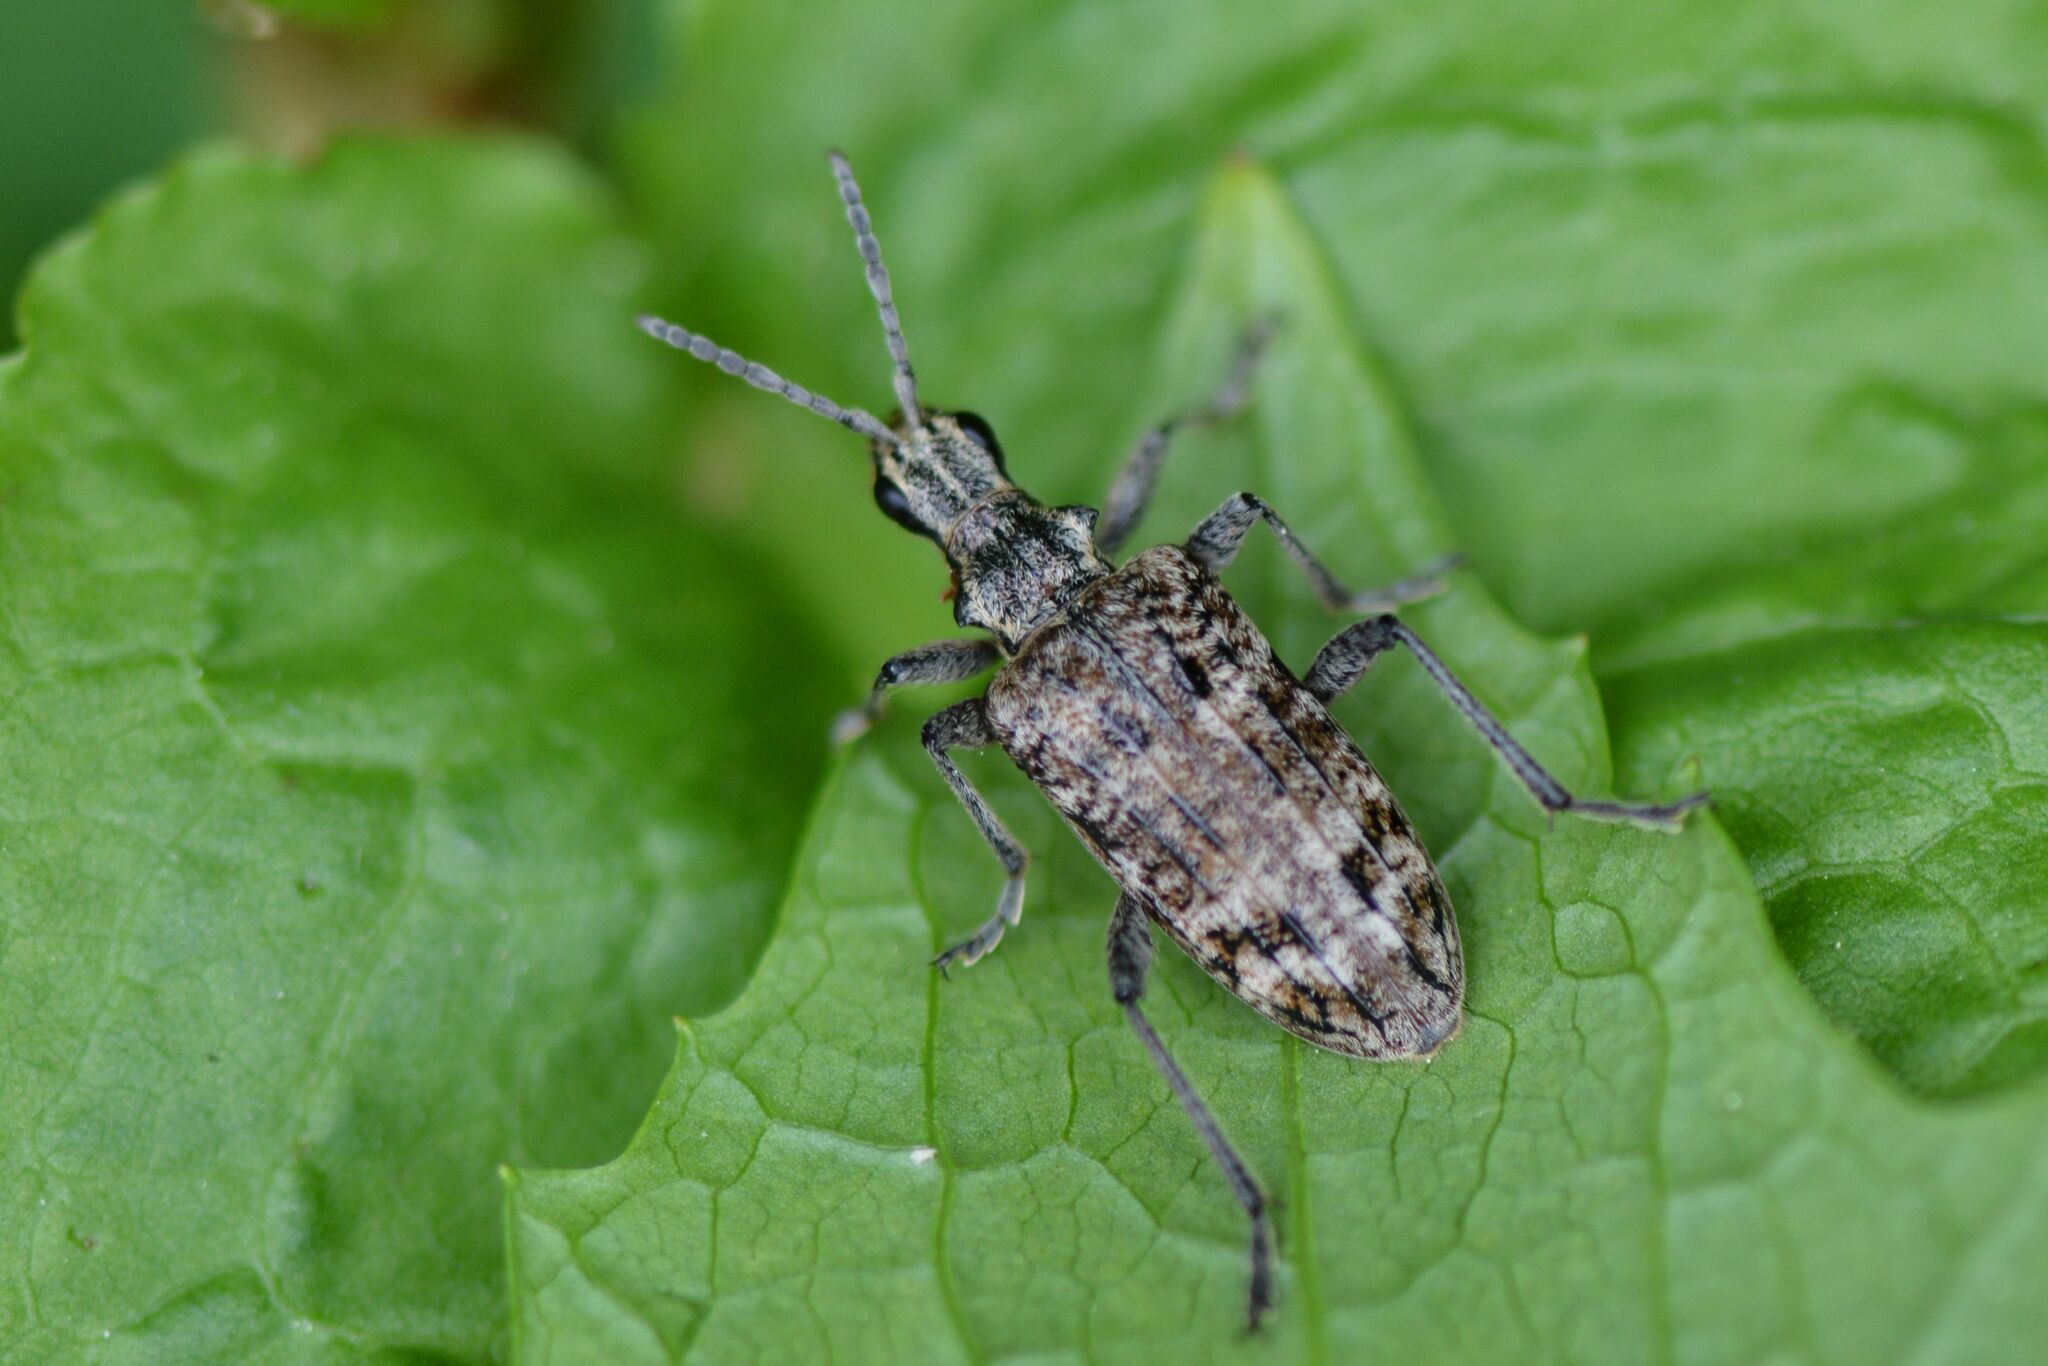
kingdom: Animalia
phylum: Arthropoda
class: Insecta
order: Coleoptera
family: Cerambycidae
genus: Rhagium
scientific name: Rhagium inquisitor
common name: Ribbed pine borer
